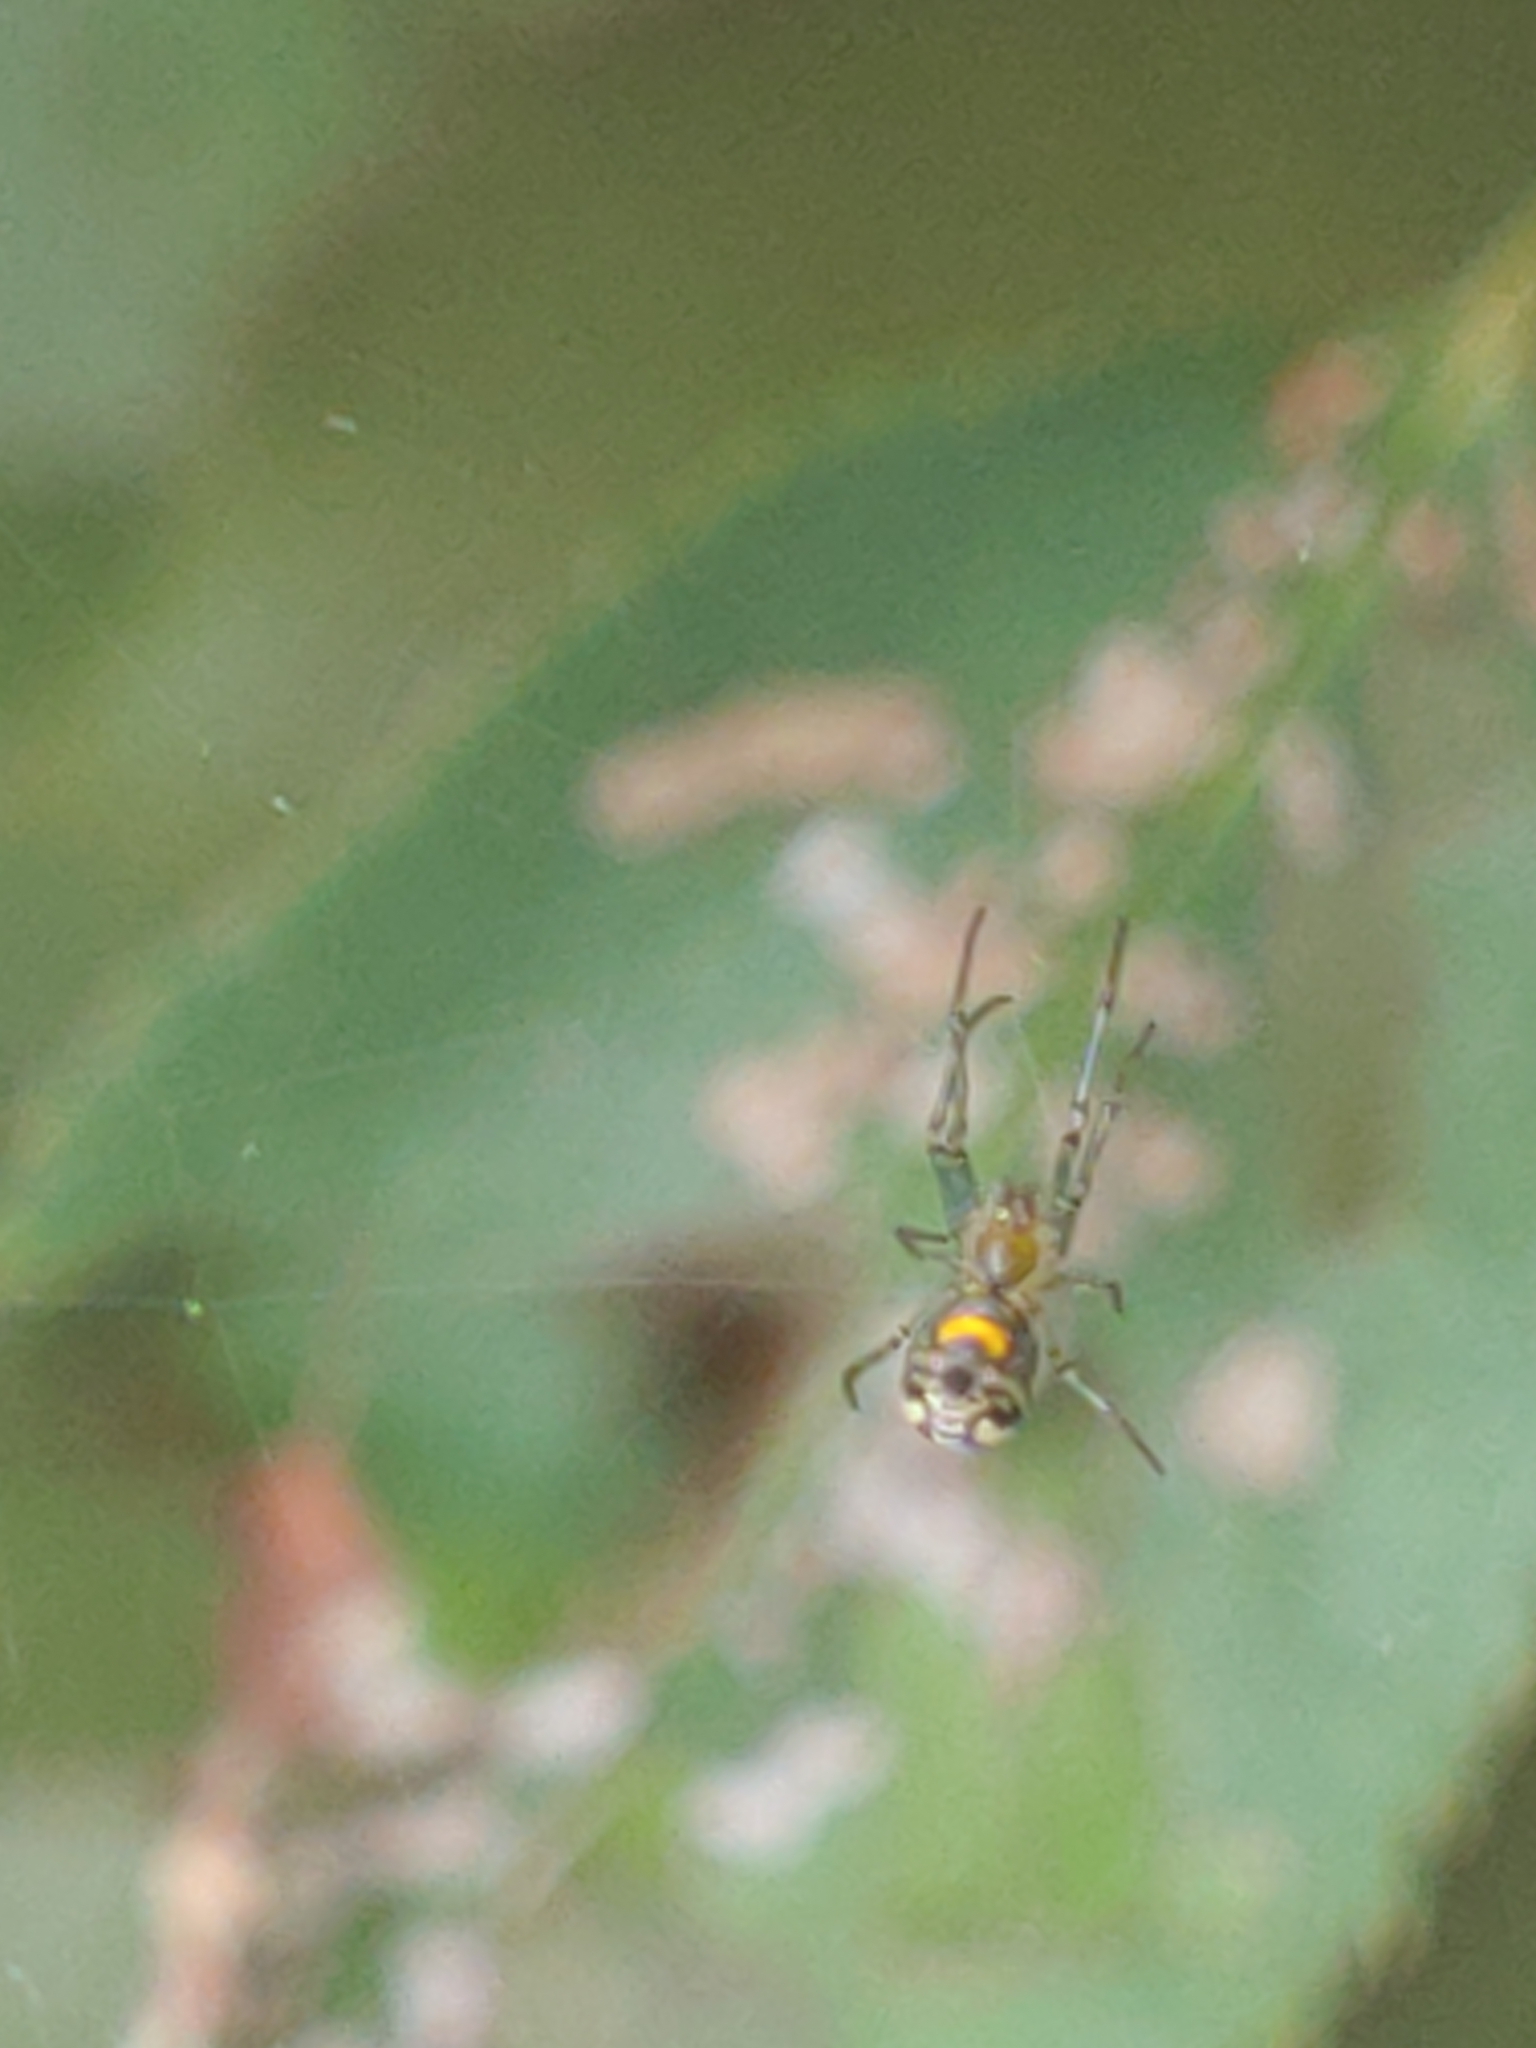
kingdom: Animalia
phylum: Arthropoda
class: Arachnida
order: Araneae
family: Tetragnathidae
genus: Leucauge
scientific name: Leucauge venusta
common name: Longjawed orb weavers
